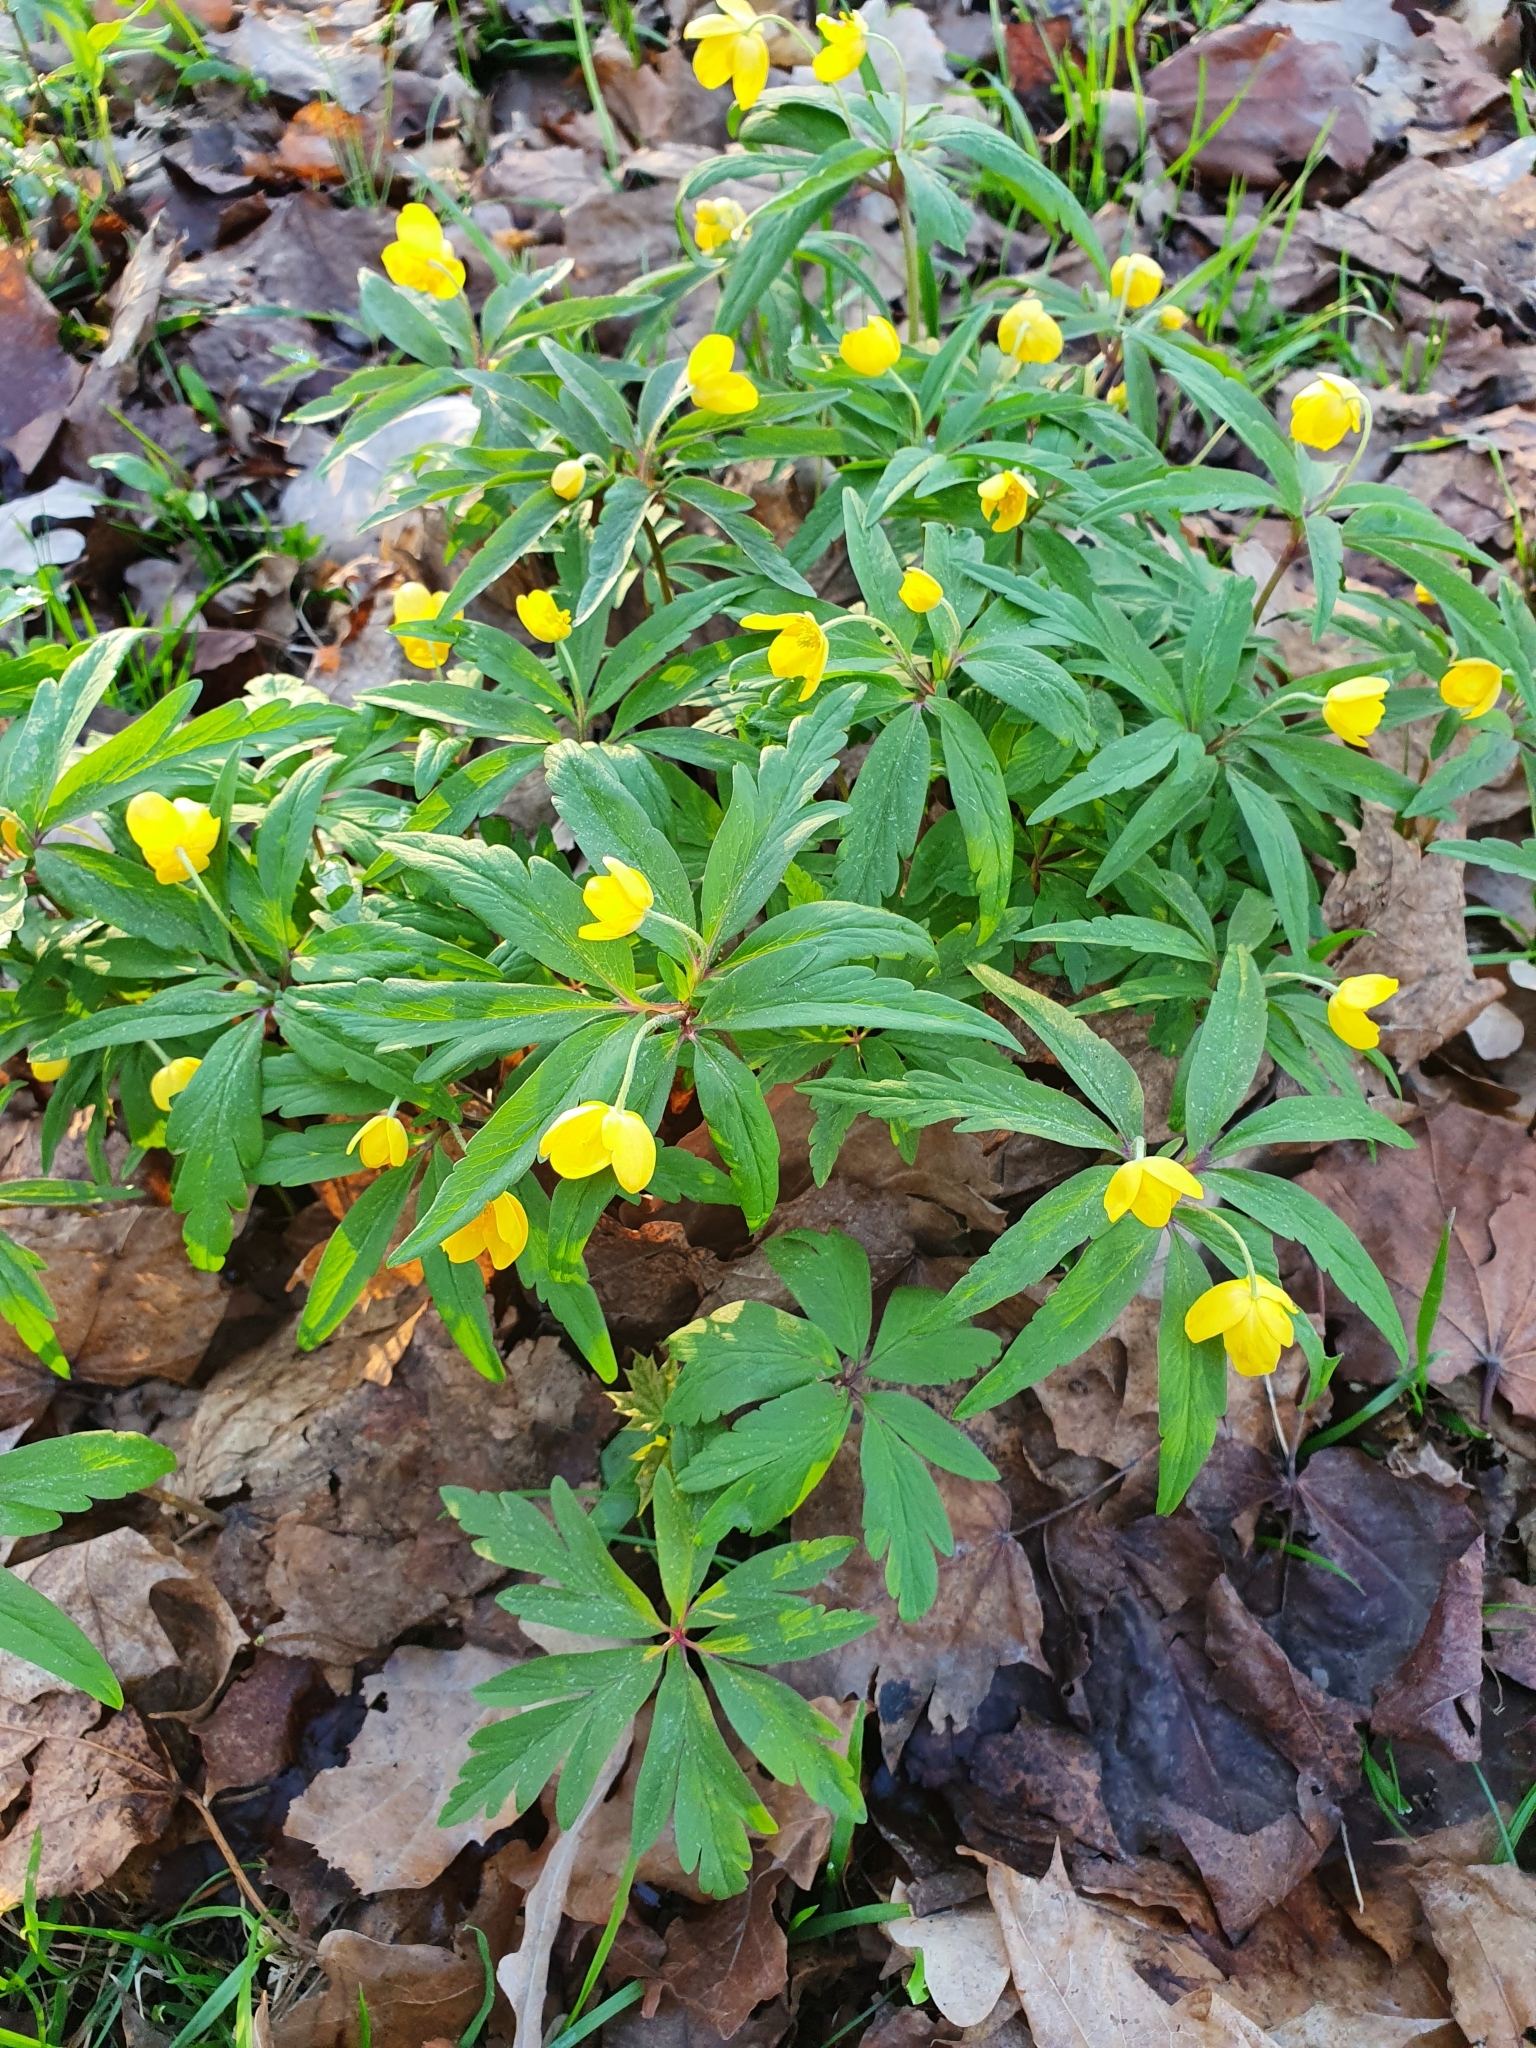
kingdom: Plantae
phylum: Tracheophyta
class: Magnoliopsida
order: Ranunculales
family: Ranunculaceae
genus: Anemone
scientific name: Anemone ranunculoides
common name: Yellow anemone
